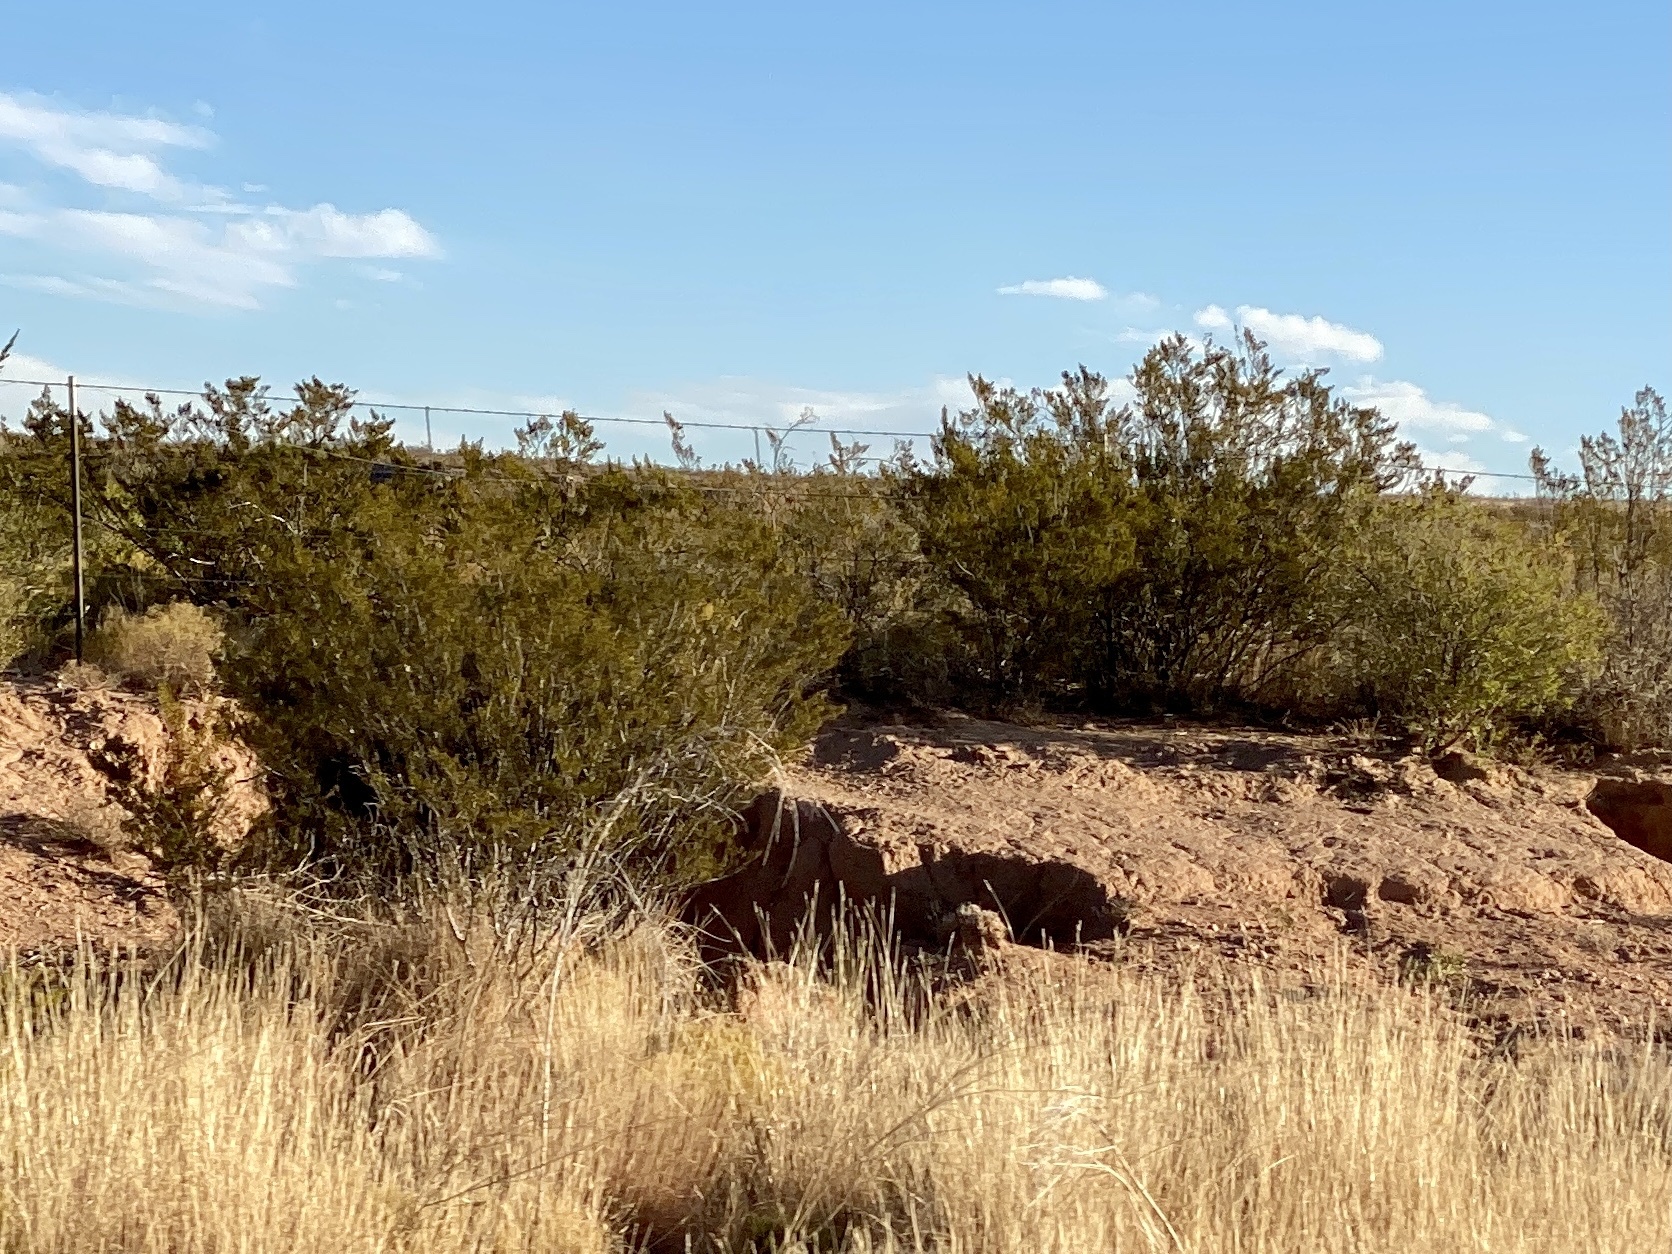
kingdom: Plantae
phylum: Tracheophyta
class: Magnoliopsida
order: Zygophyllales
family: Zygophyllaceae
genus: Larrea
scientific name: Larrea tridentata
